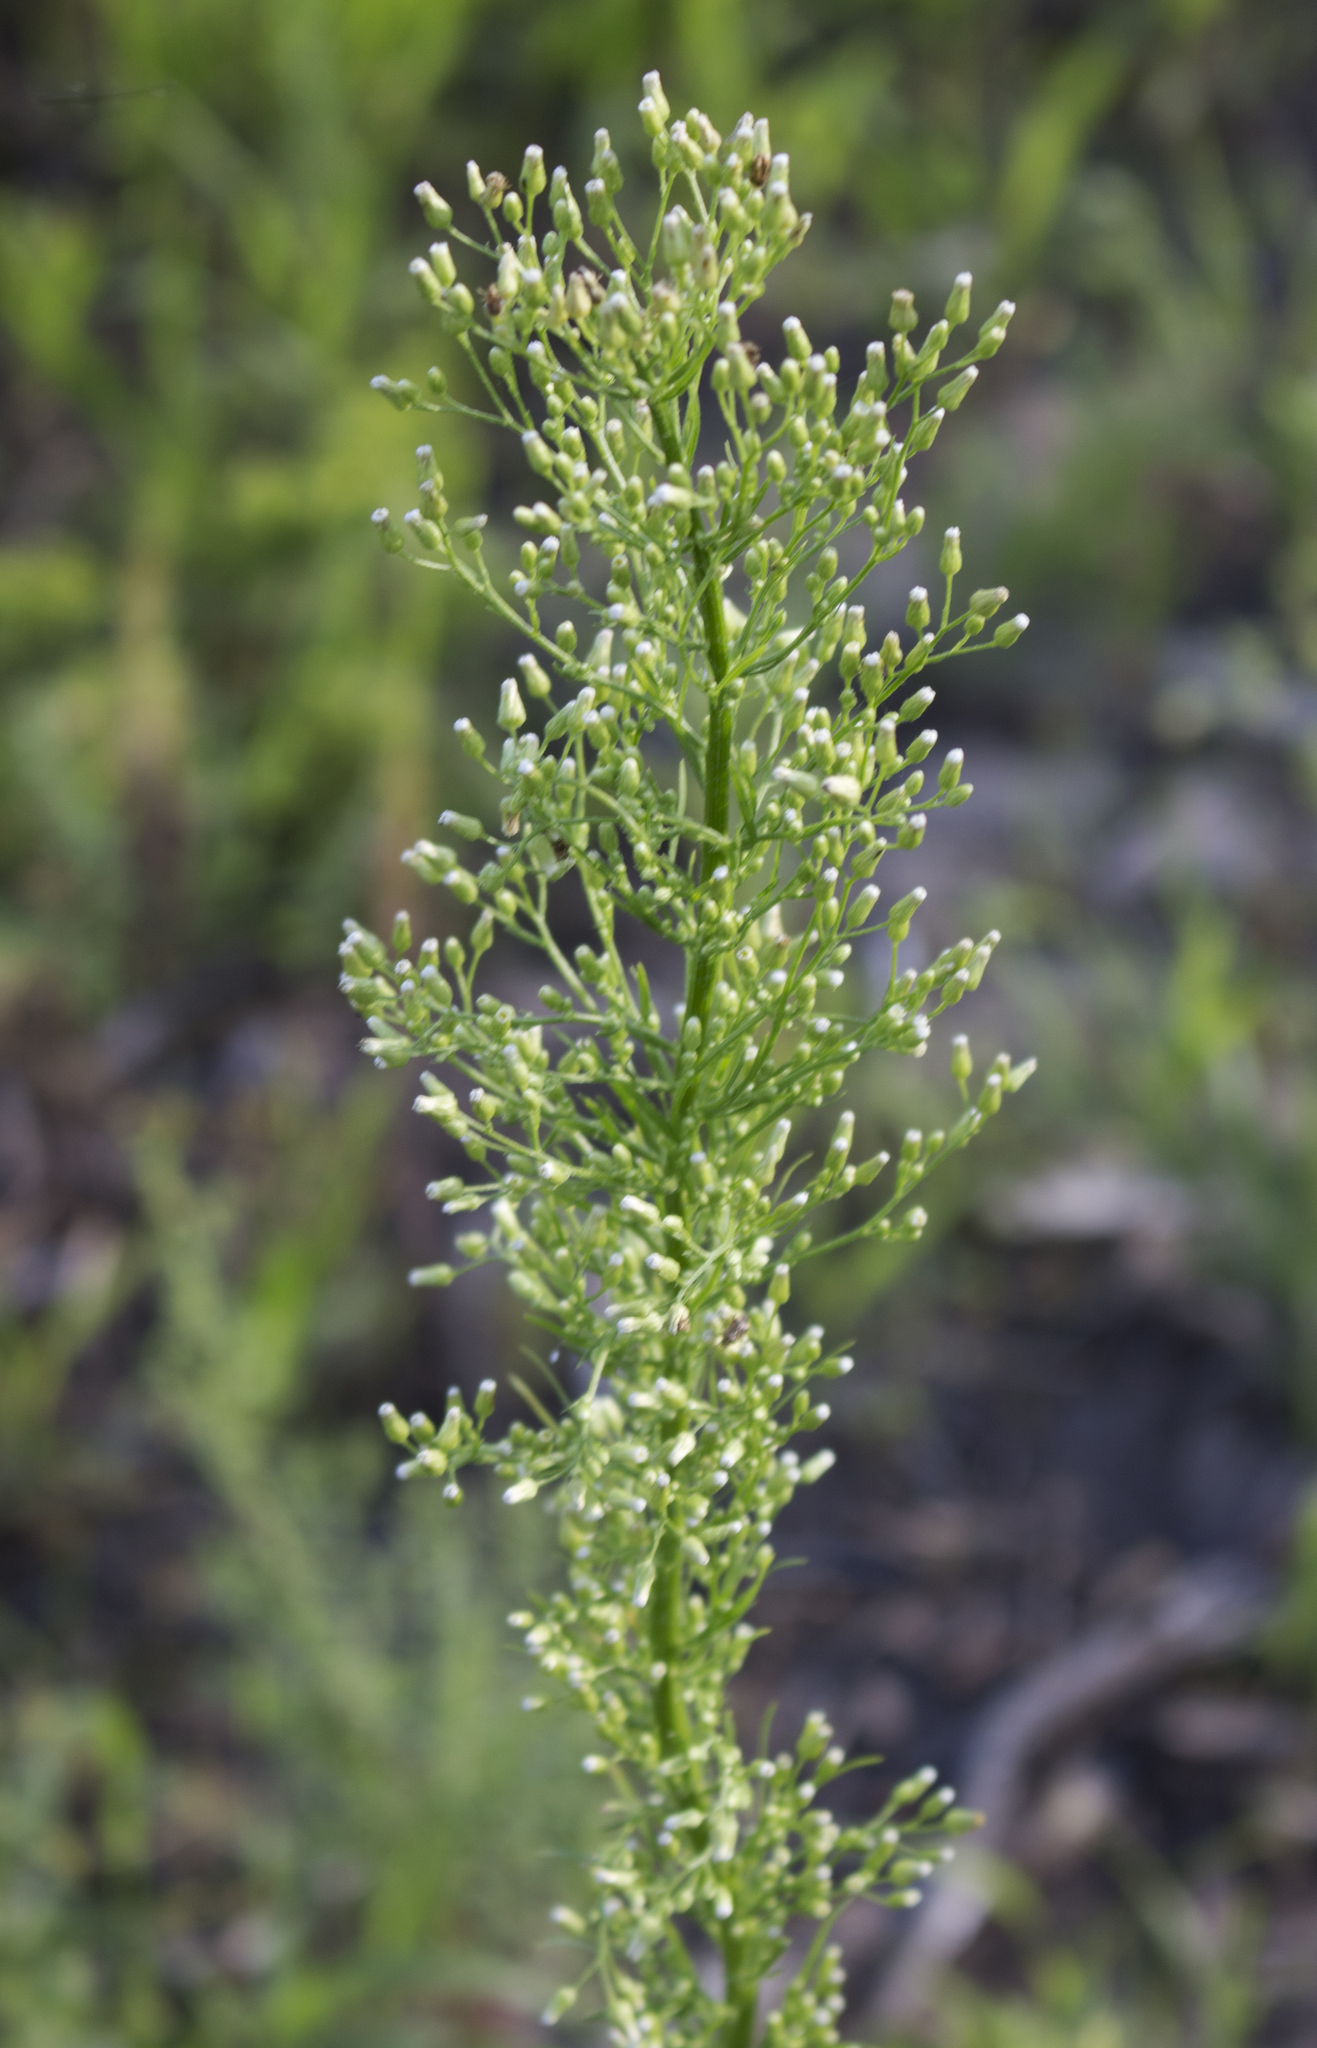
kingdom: Plantae
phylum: Tracheophyta
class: Magnoliopsida
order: Asterales
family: Asteraceae
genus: Erigeron
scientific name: Erigeron canadensis
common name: Canadian fleabane
